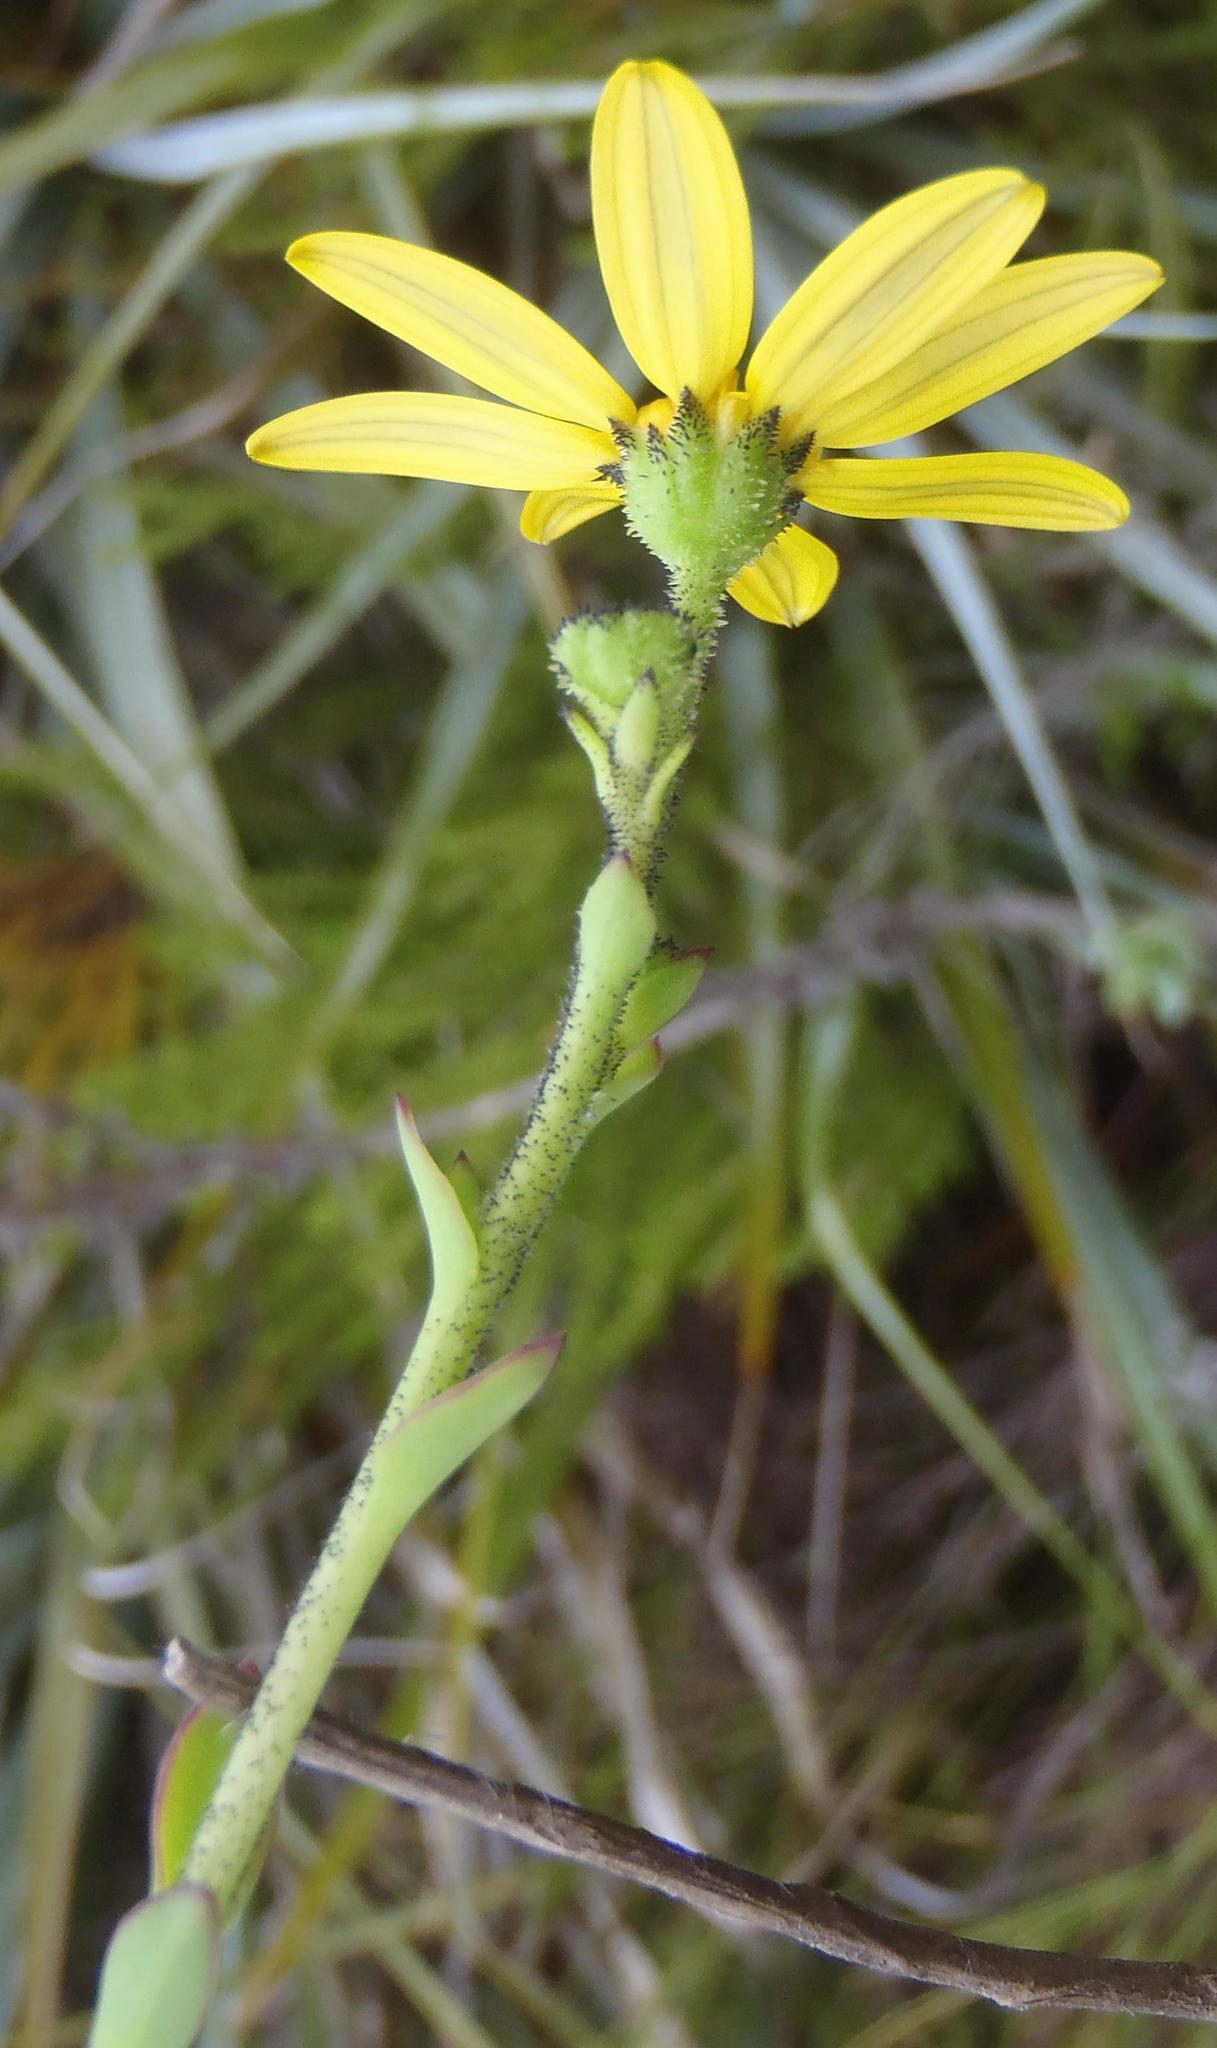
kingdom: Plantae
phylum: Tracheophyta
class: Magnoliopsida
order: Asterales
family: Asteraceae
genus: Osteospermum
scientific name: Osteospermum rotundifolium
